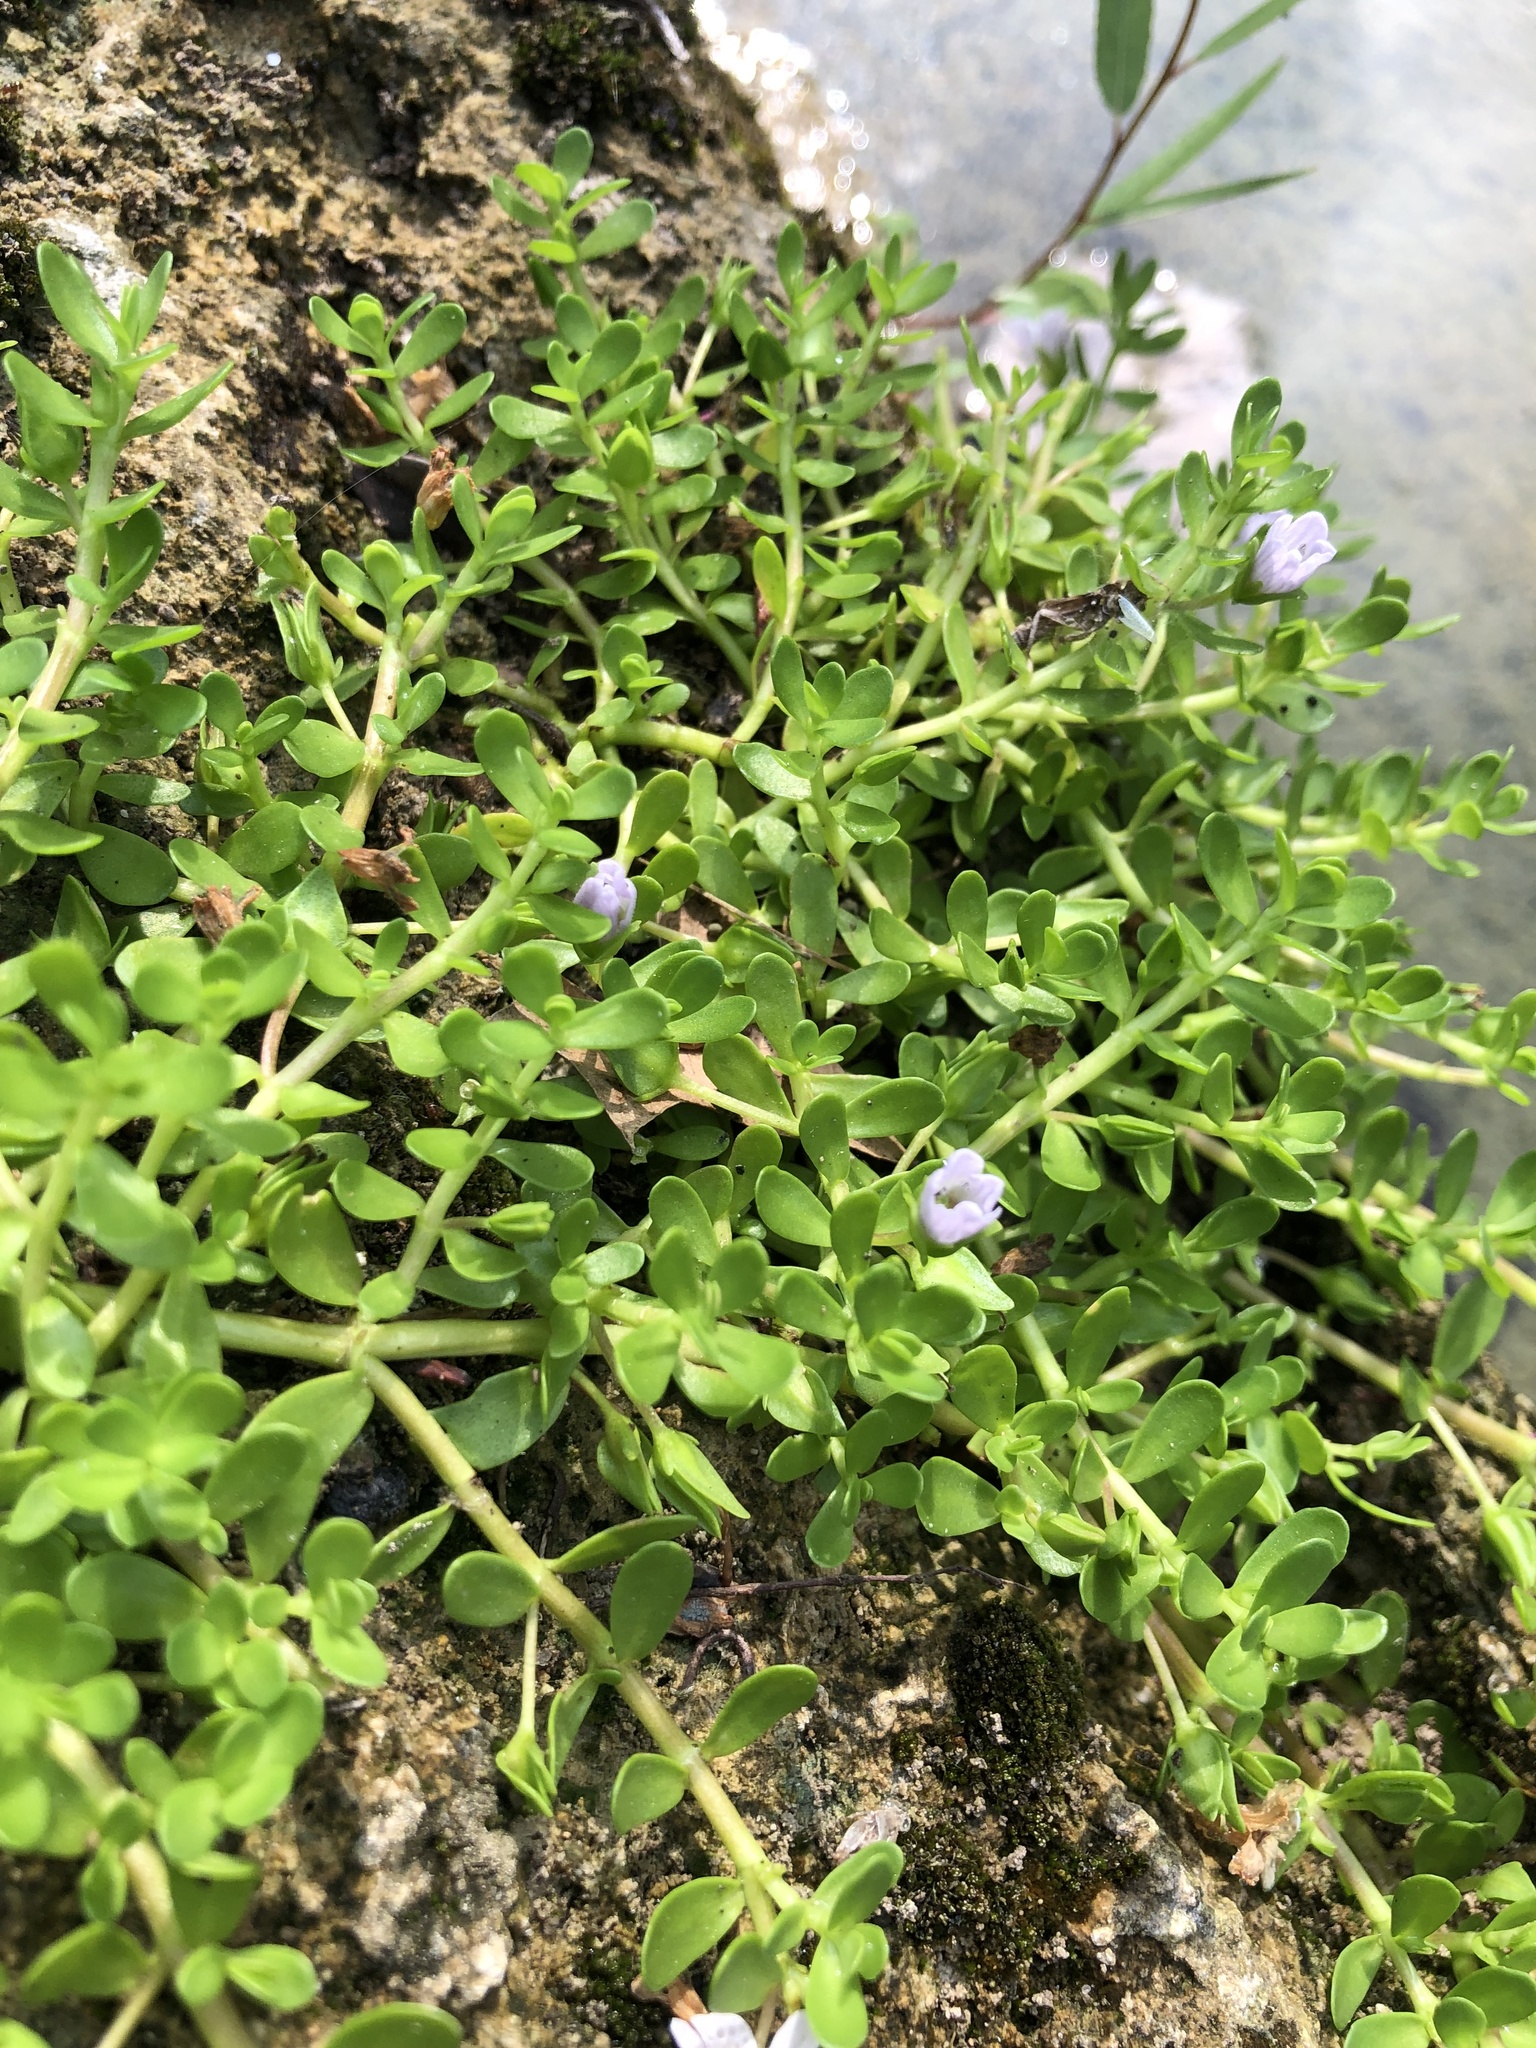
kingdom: Plantae
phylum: Tracheophyta
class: Magnoliopsida
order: Lamiales
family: Plantaginaceae
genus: Bacopa
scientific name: Bacopa monnieri
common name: Indian-pennywort
